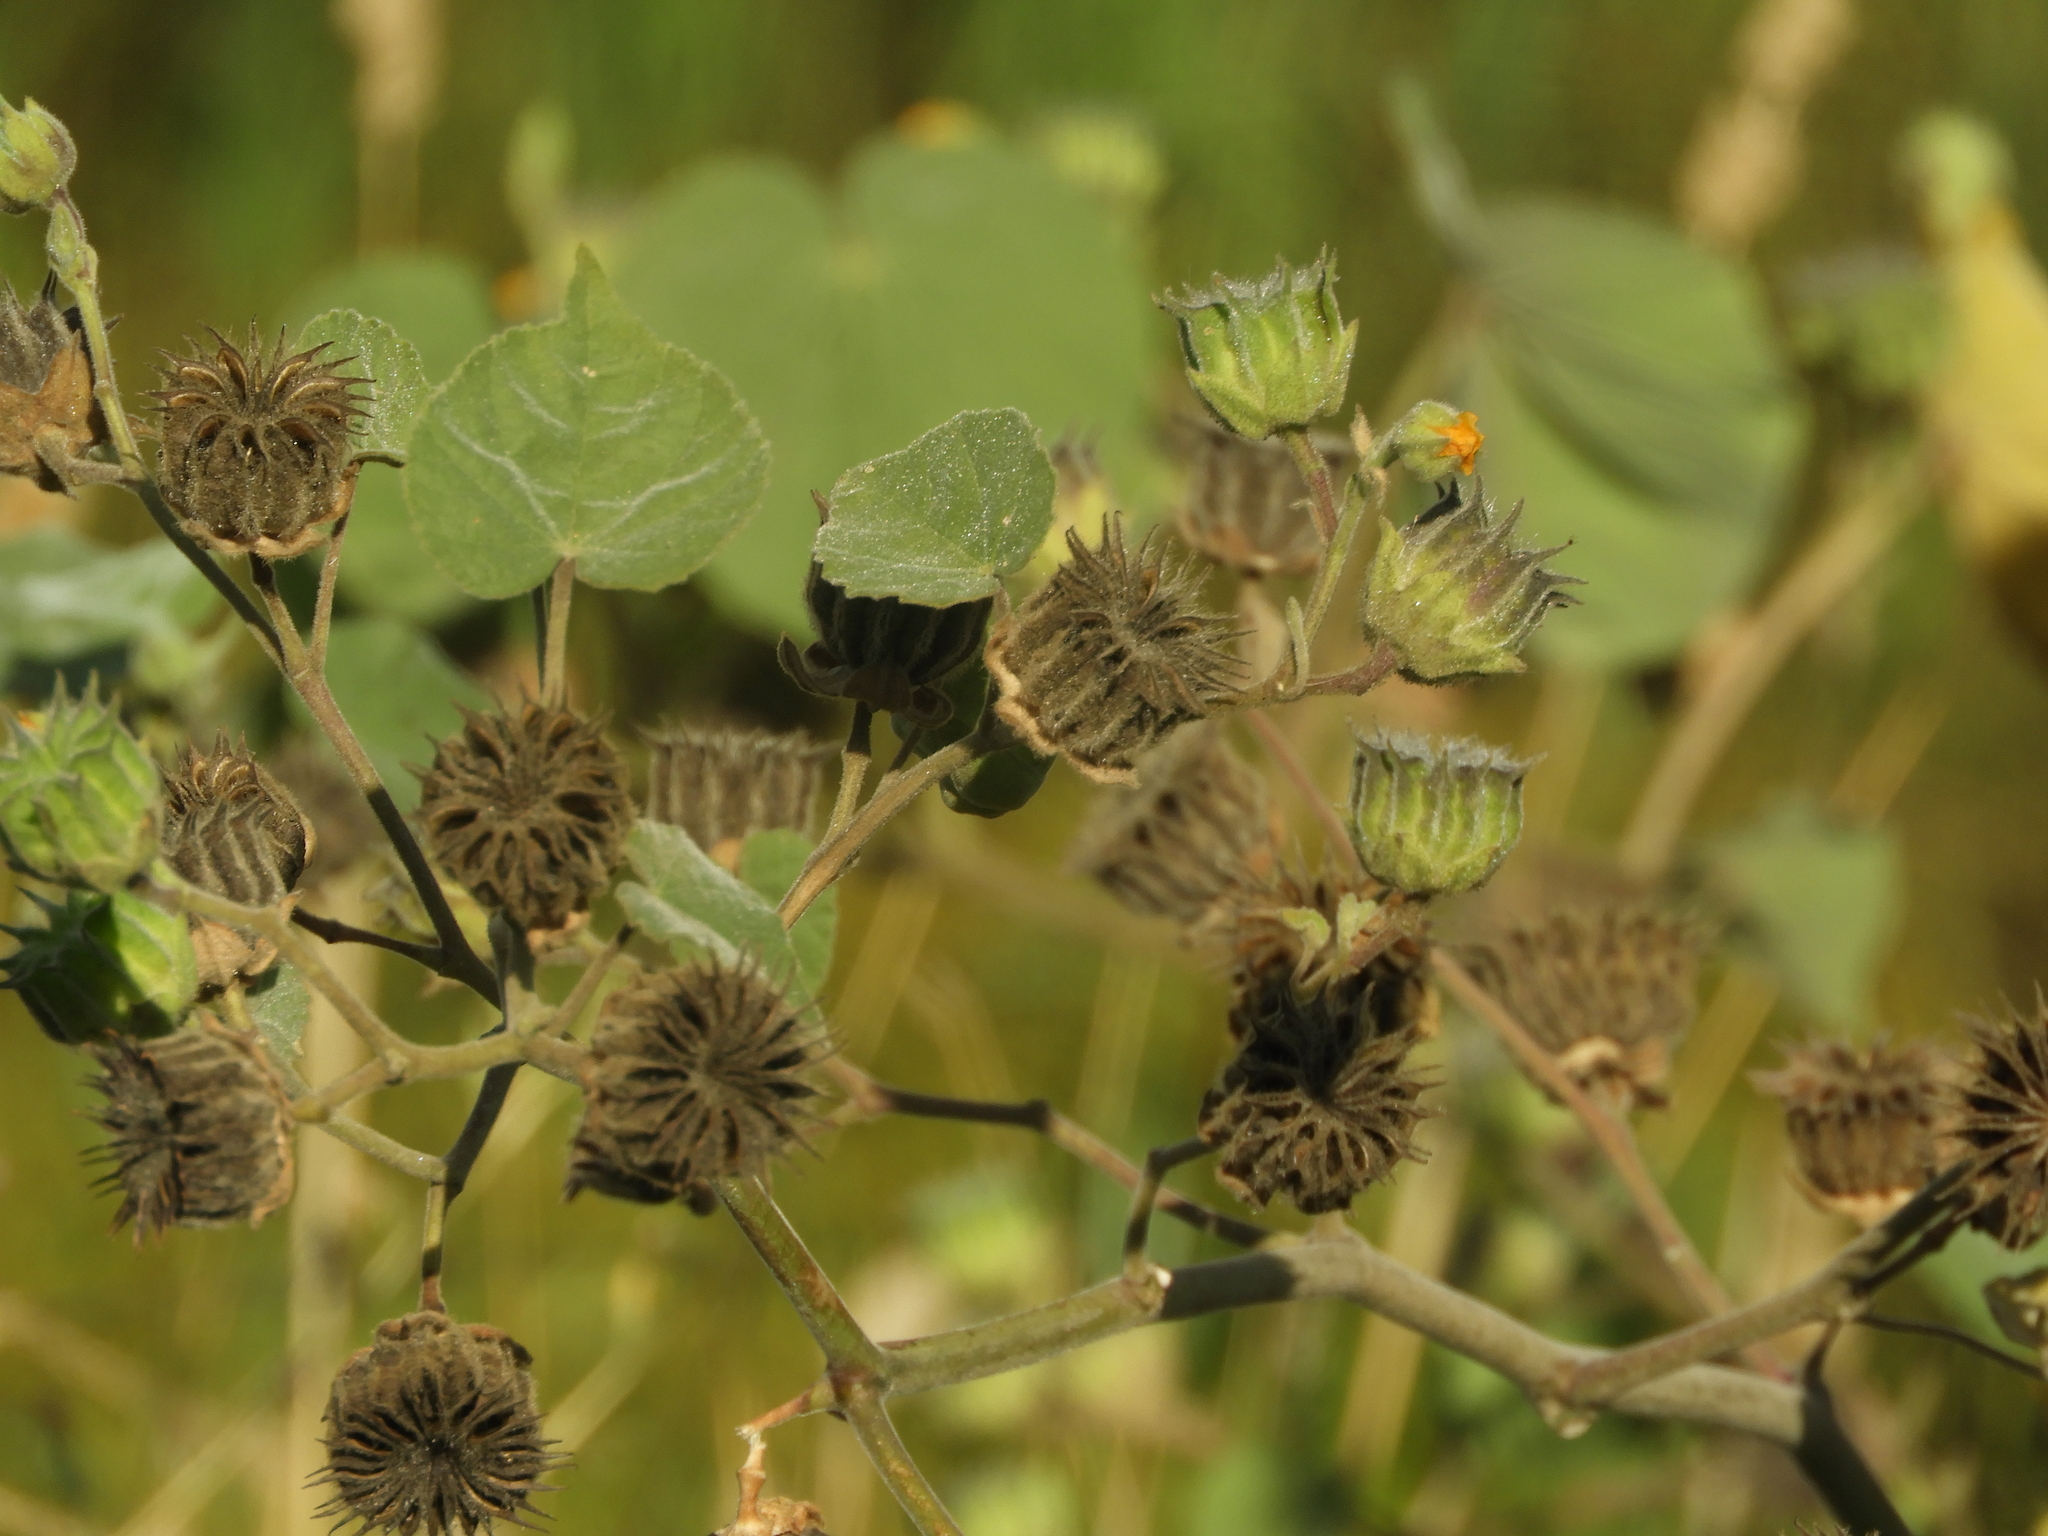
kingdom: Plantae
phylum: Tracheophyta
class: Magnoliopsida
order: Malvales
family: Malvaceae
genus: Abutilon
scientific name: Abutilon theophrasti
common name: Velvetleaf
